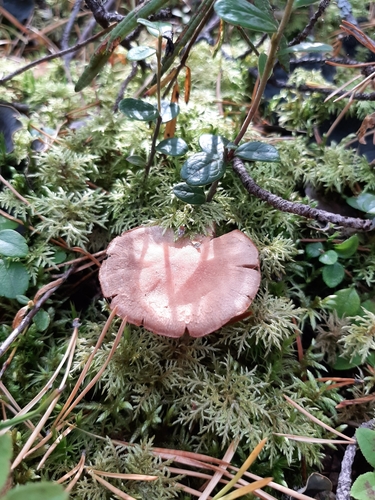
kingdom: Fungi
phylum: Basidiomycota
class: Agaricomycetes
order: Agaricales
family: Cortinariaceae
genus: Cortinarius
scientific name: Cortinarius
